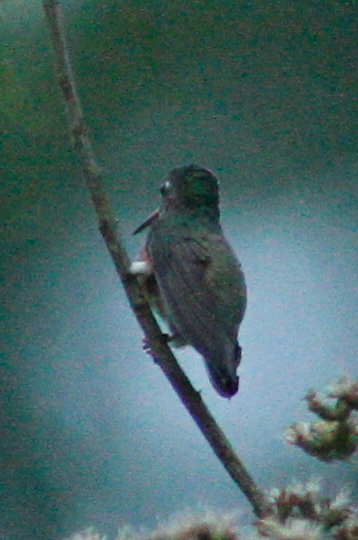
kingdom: Animalia
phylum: Chordata
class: Aves
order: Apodiformes
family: Trochilidae
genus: Amazilis
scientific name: Amazilis amazilia
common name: Amazilia hummingbird
